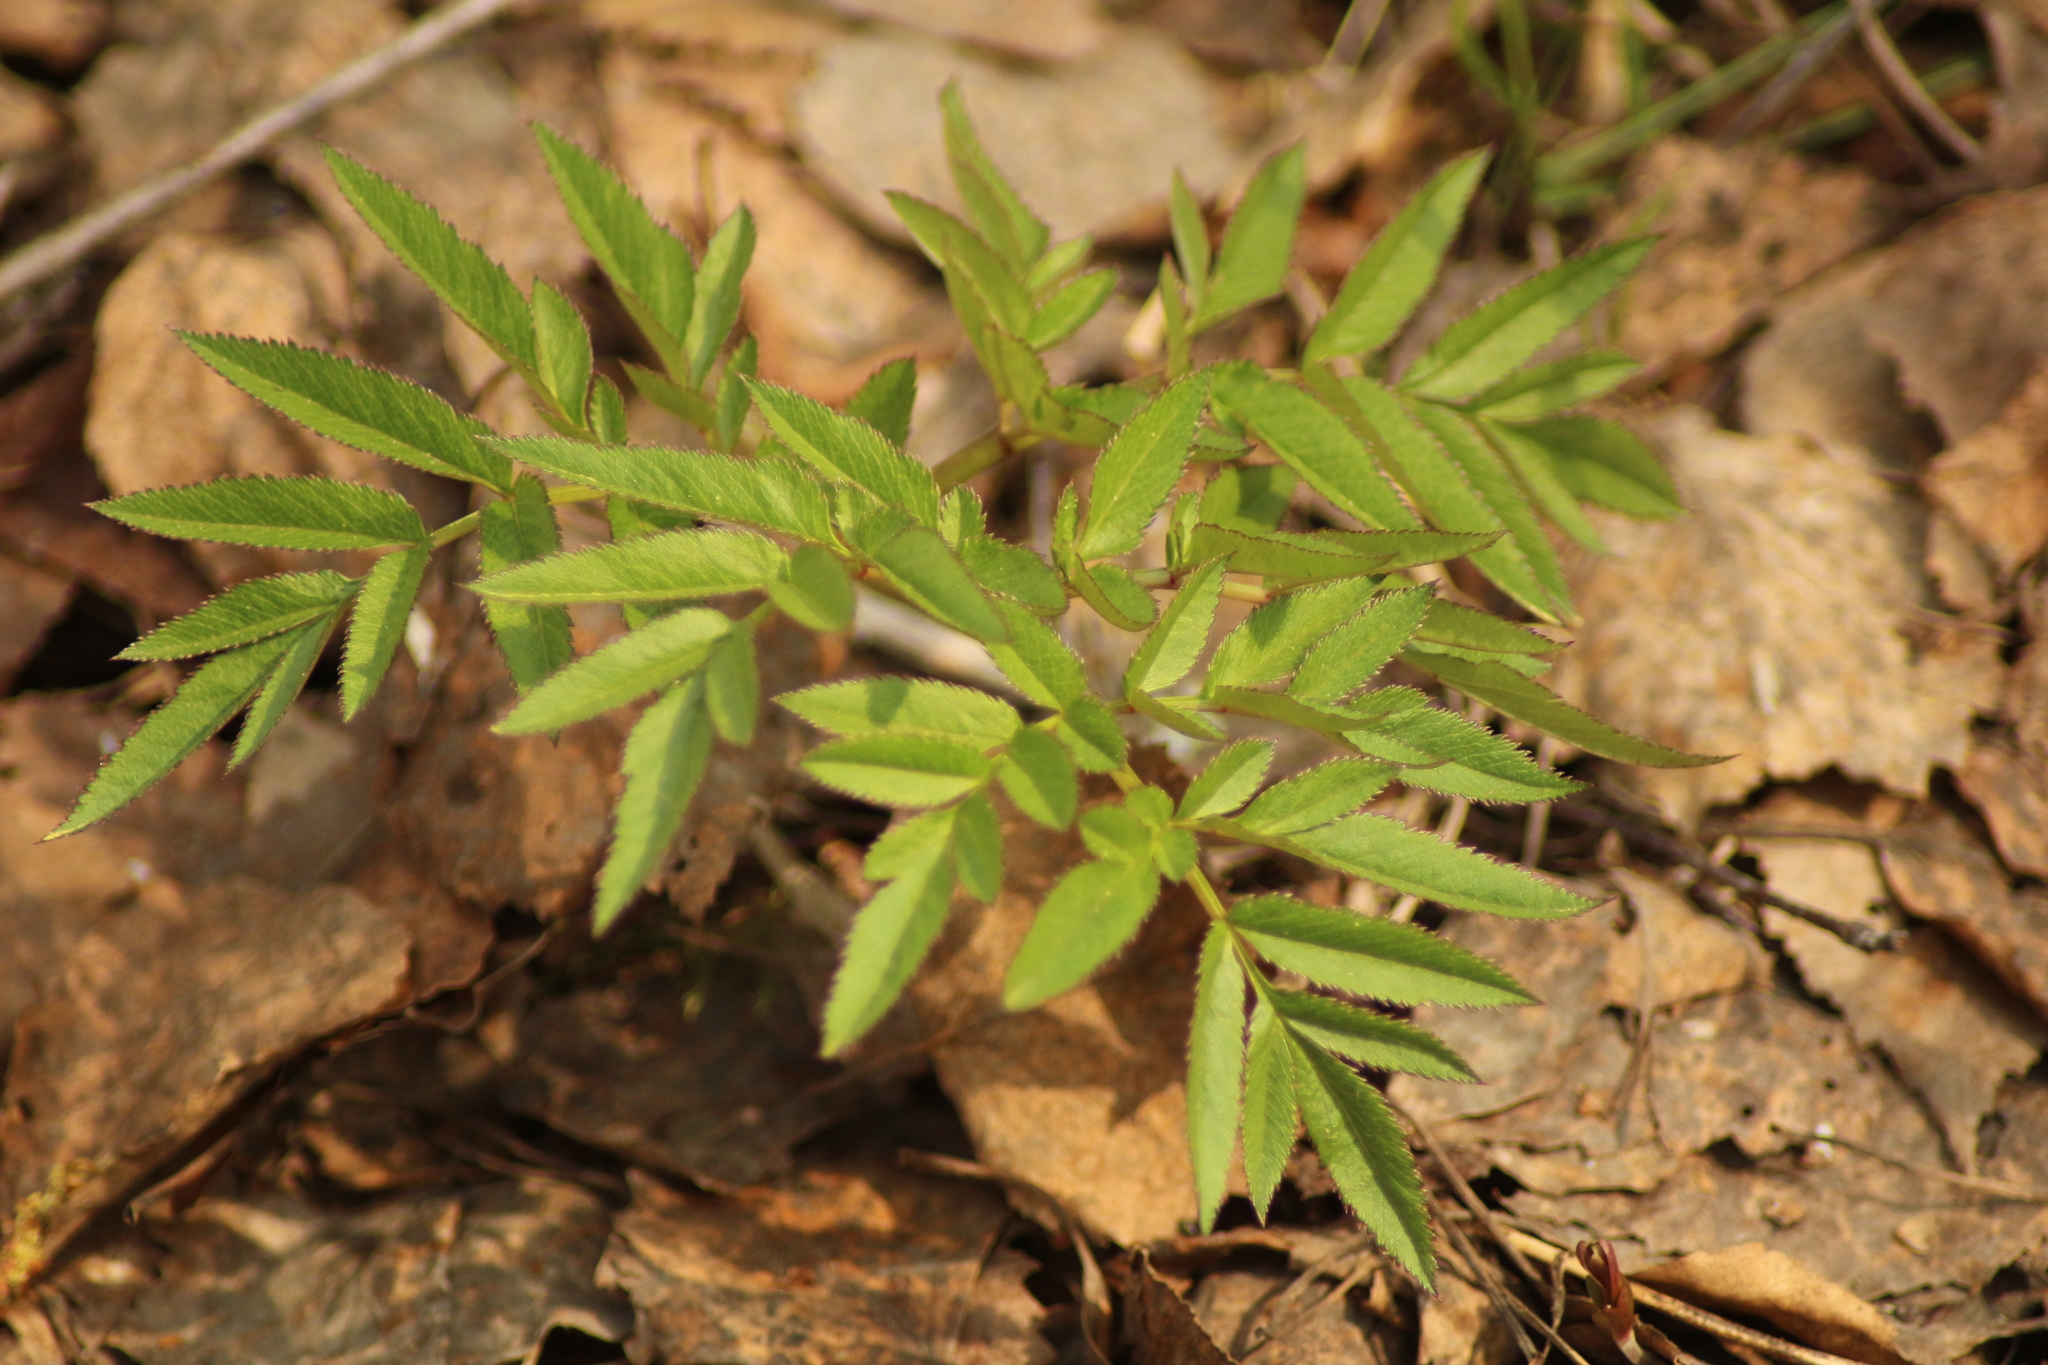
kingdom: Plantae
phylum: Tracheophyta
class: Magnoliopsida
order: Apiales
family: Apiaceae
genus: Angelica
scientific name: Angelica sylvestris
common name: Wild angelica
